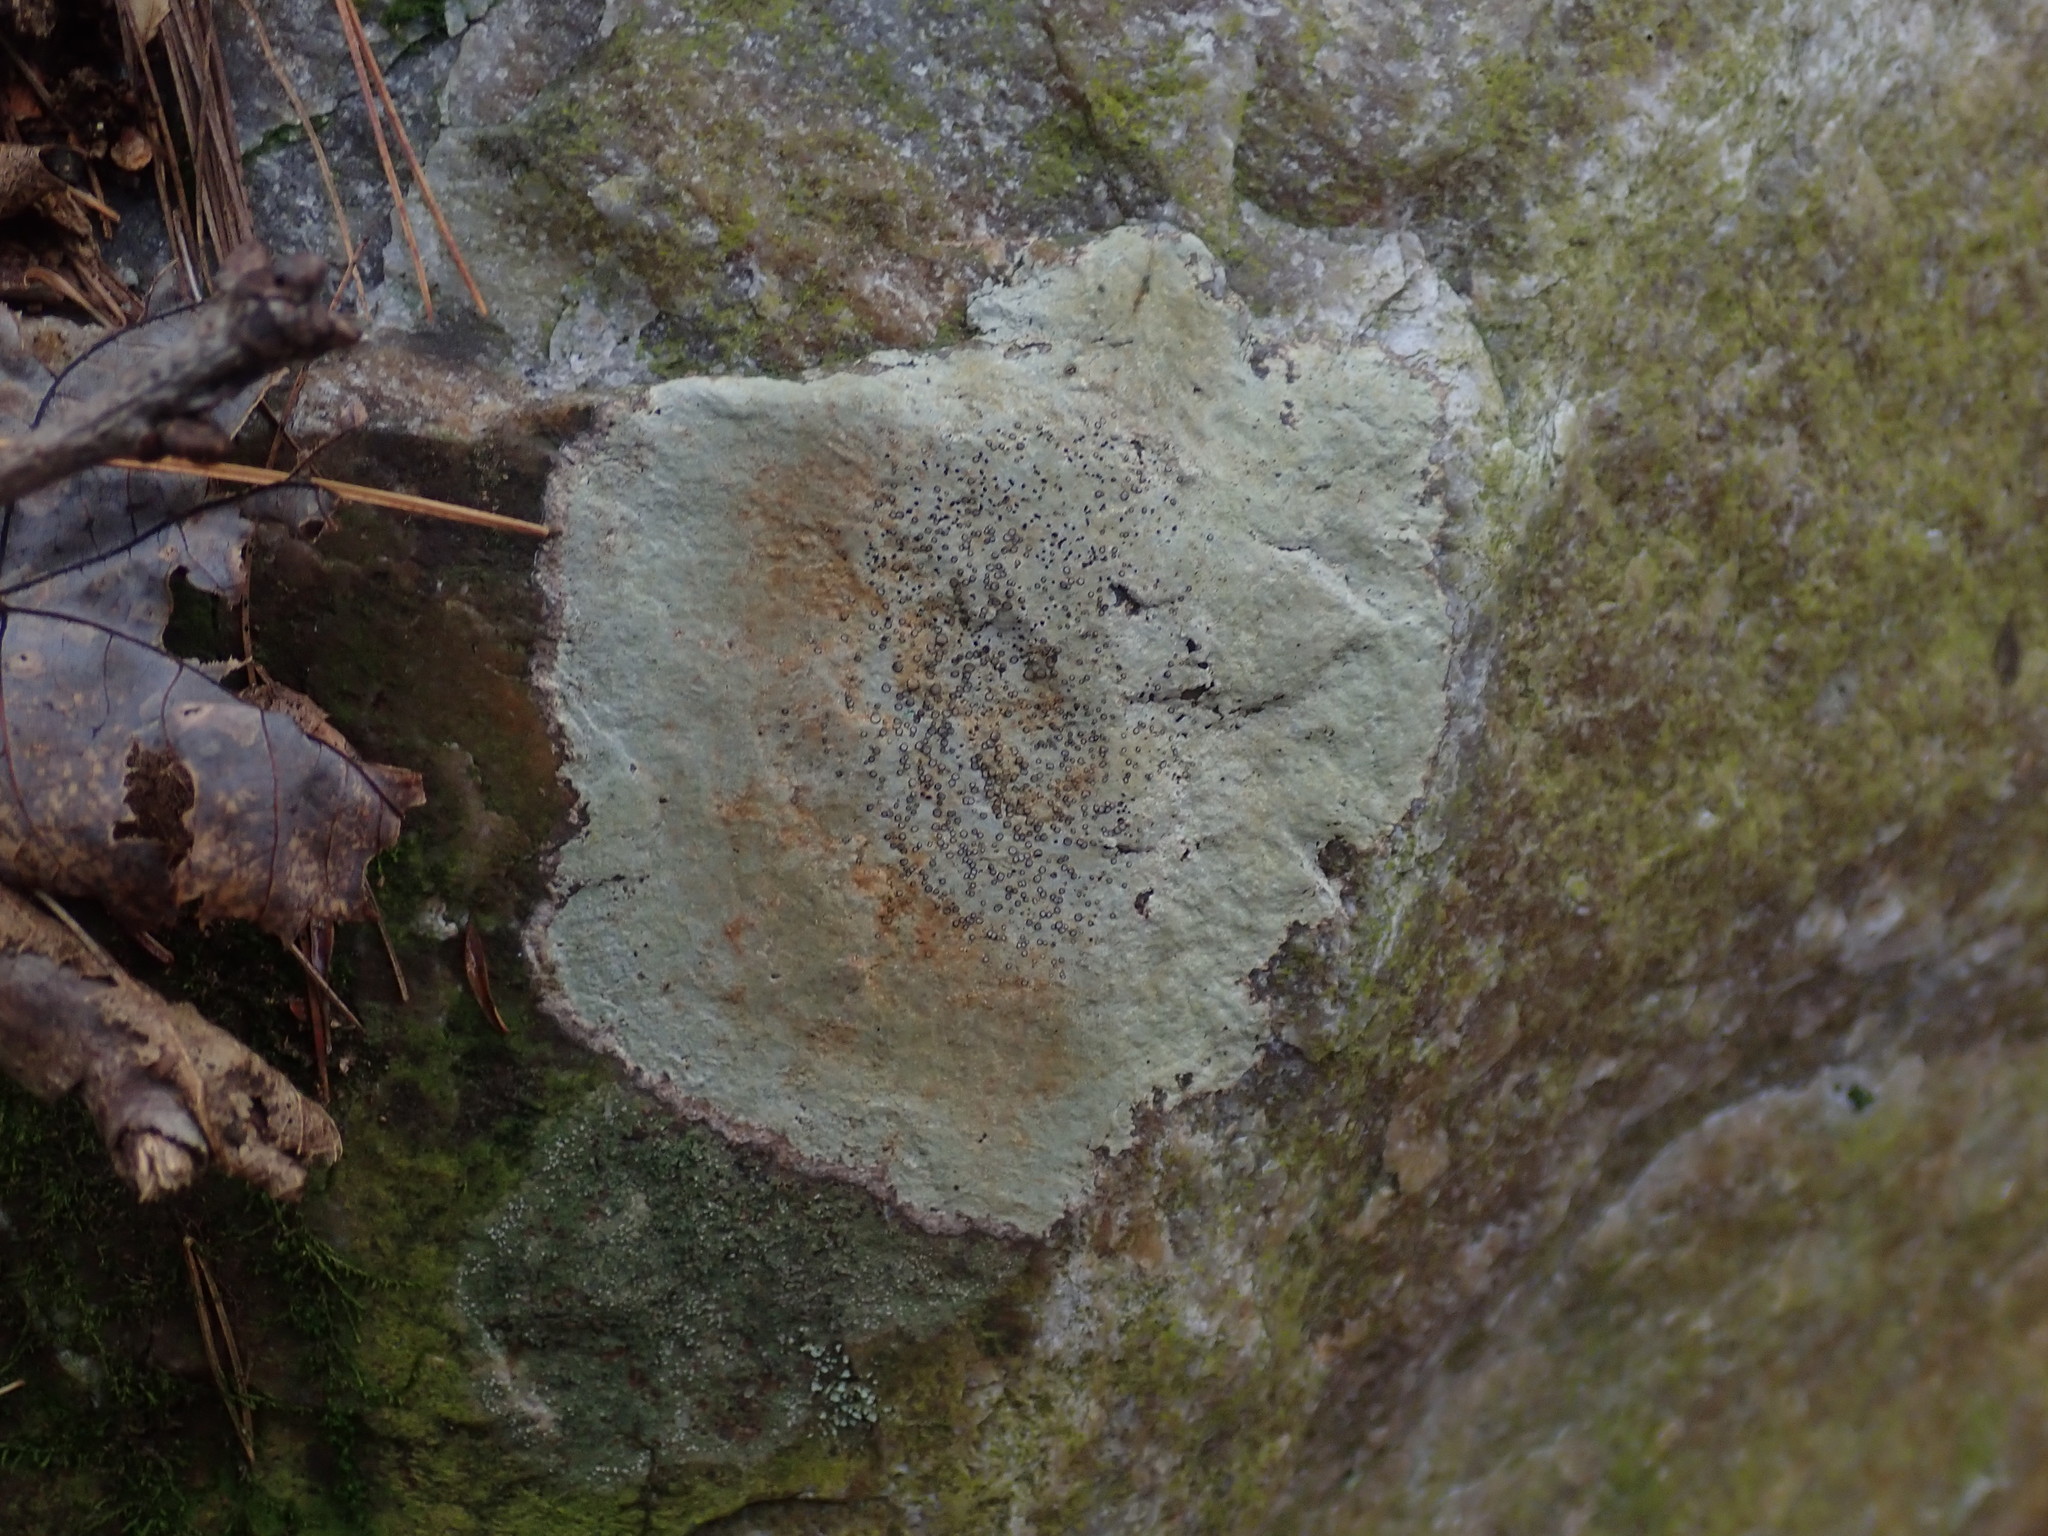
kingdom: Fungi
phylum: Ascomycota
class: Lecanoromycetes
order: Lecideales
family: Lecideaceae
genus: Porpidia
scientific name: Porpidia albocaerulescens
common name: Smokey-eyed boulder lichen
